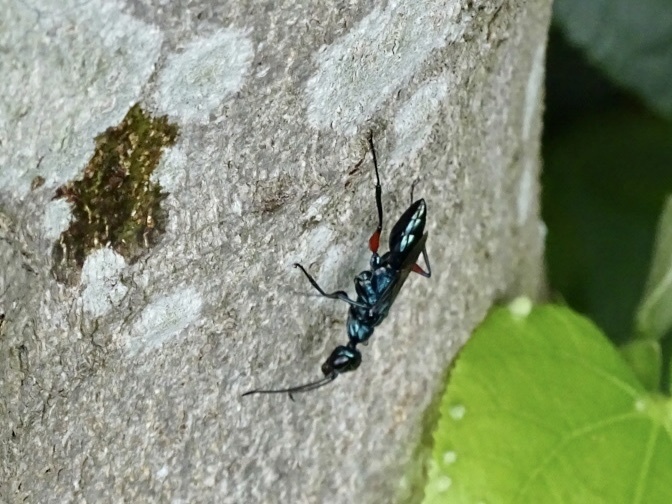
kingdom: Animalia
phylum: Arthropoda
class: Insecta
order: Hymenoptera
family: Ampulicidae
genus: Ampulex
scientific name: Ampulex dissector
